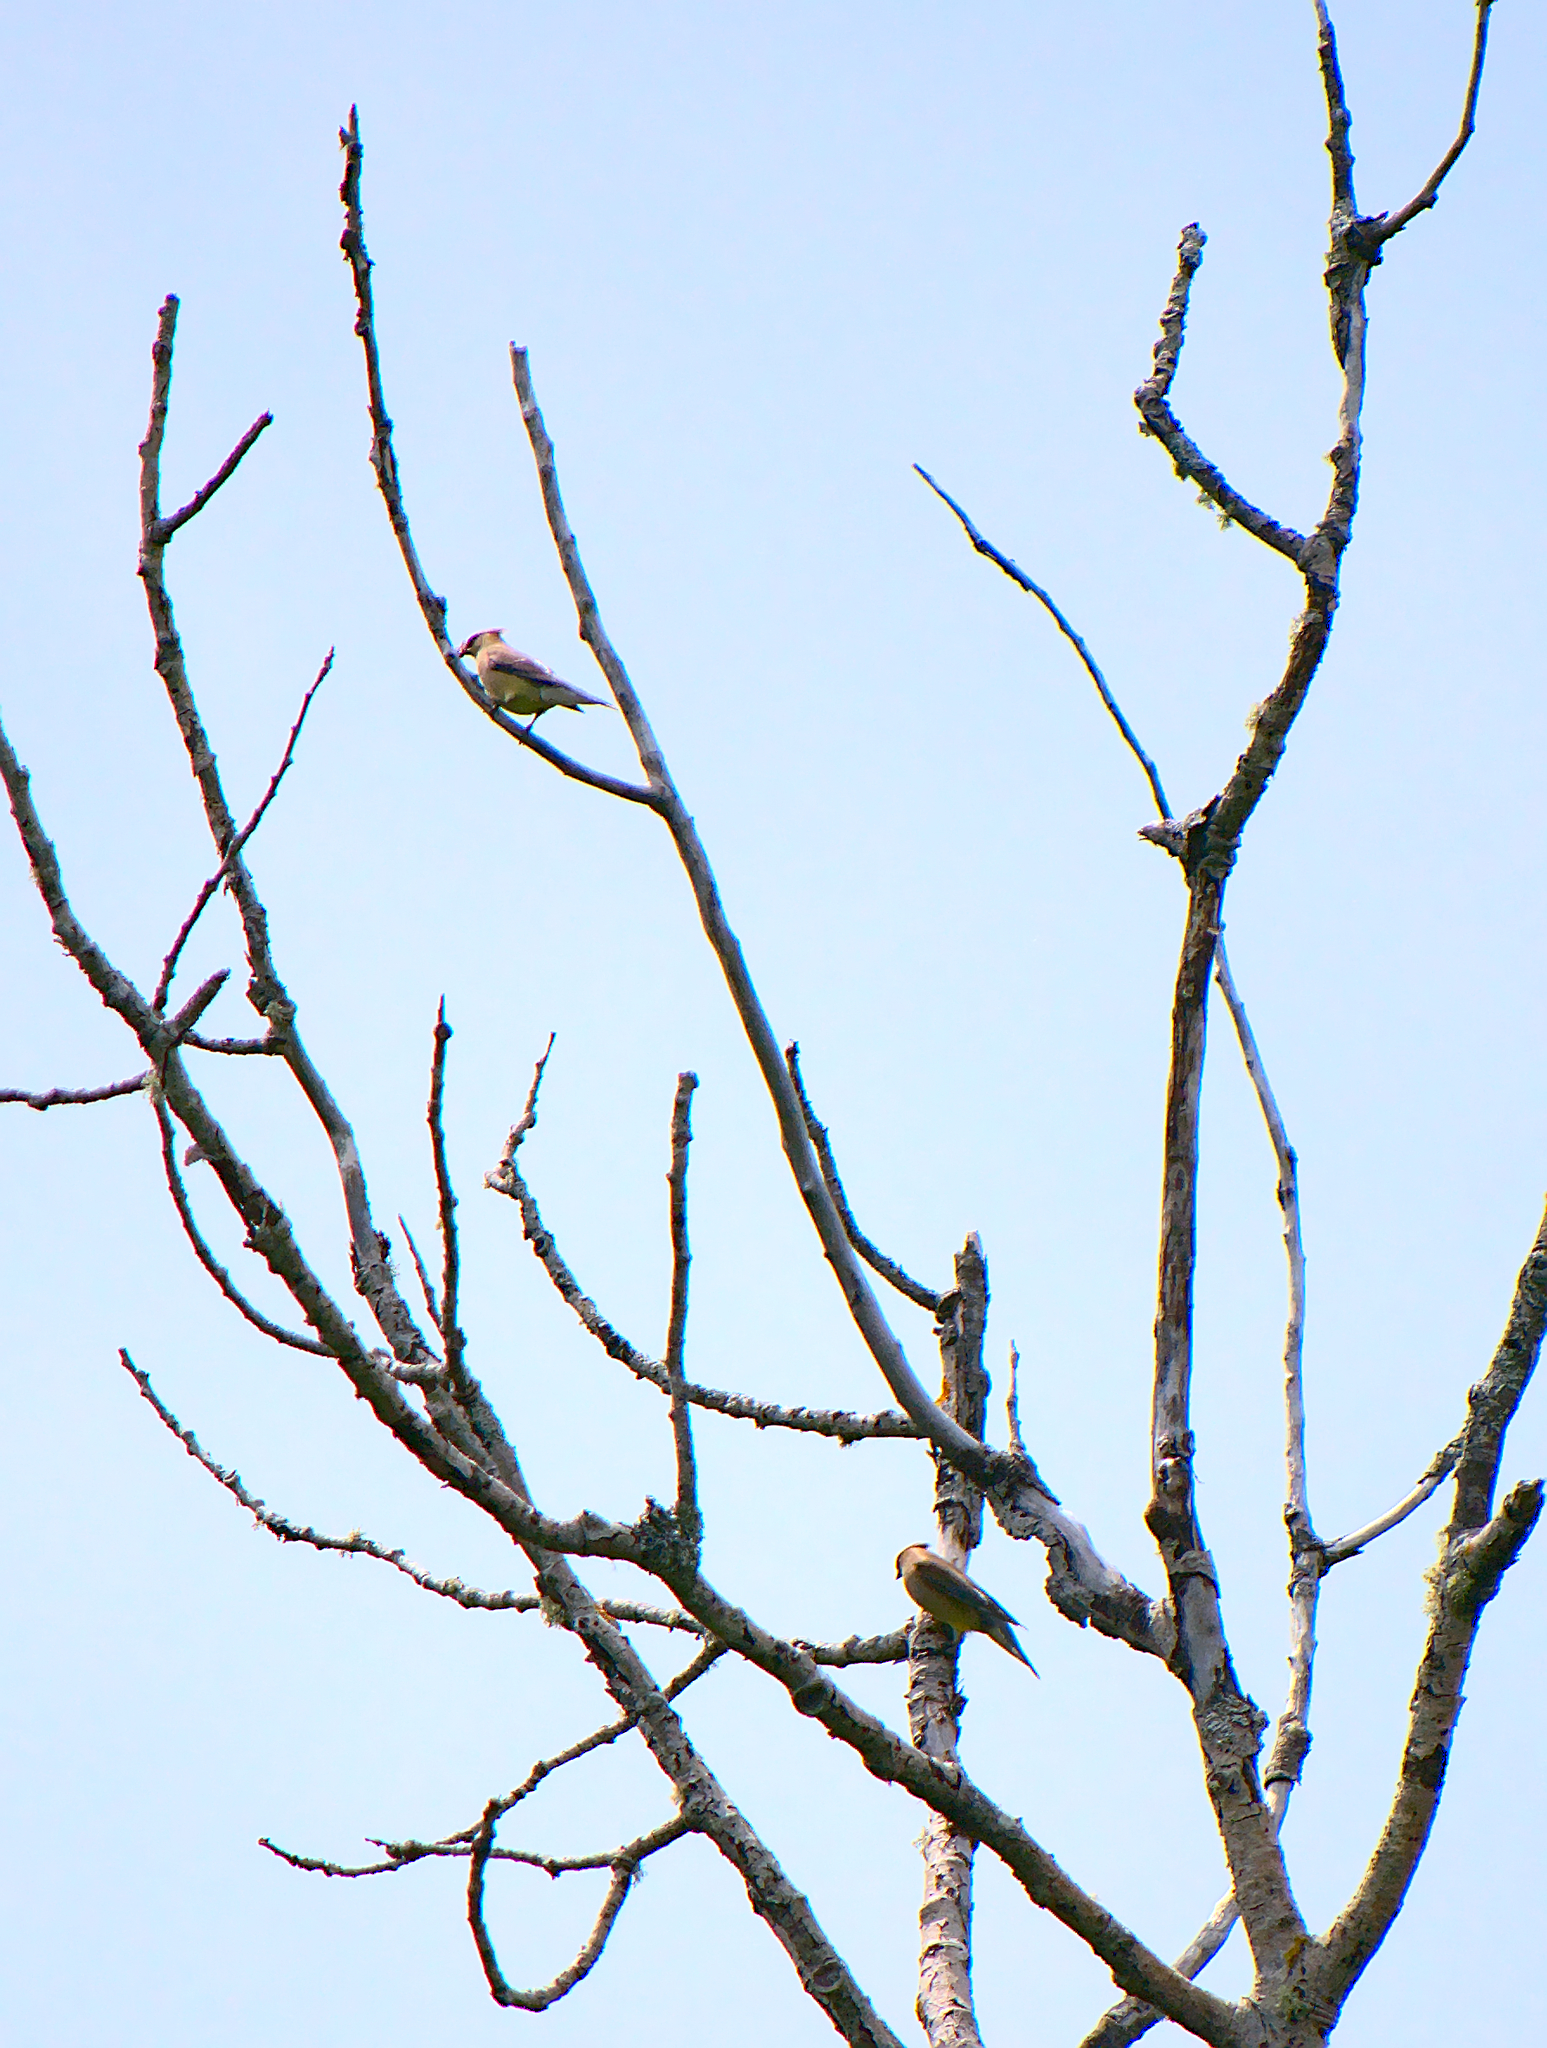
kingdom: Animalia
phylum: Chordata
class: Aves
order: Passeriformes
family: Bombycillidae
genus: Bombycilla
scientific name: Bombycilla cedrorum
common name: Cedar waxwing
